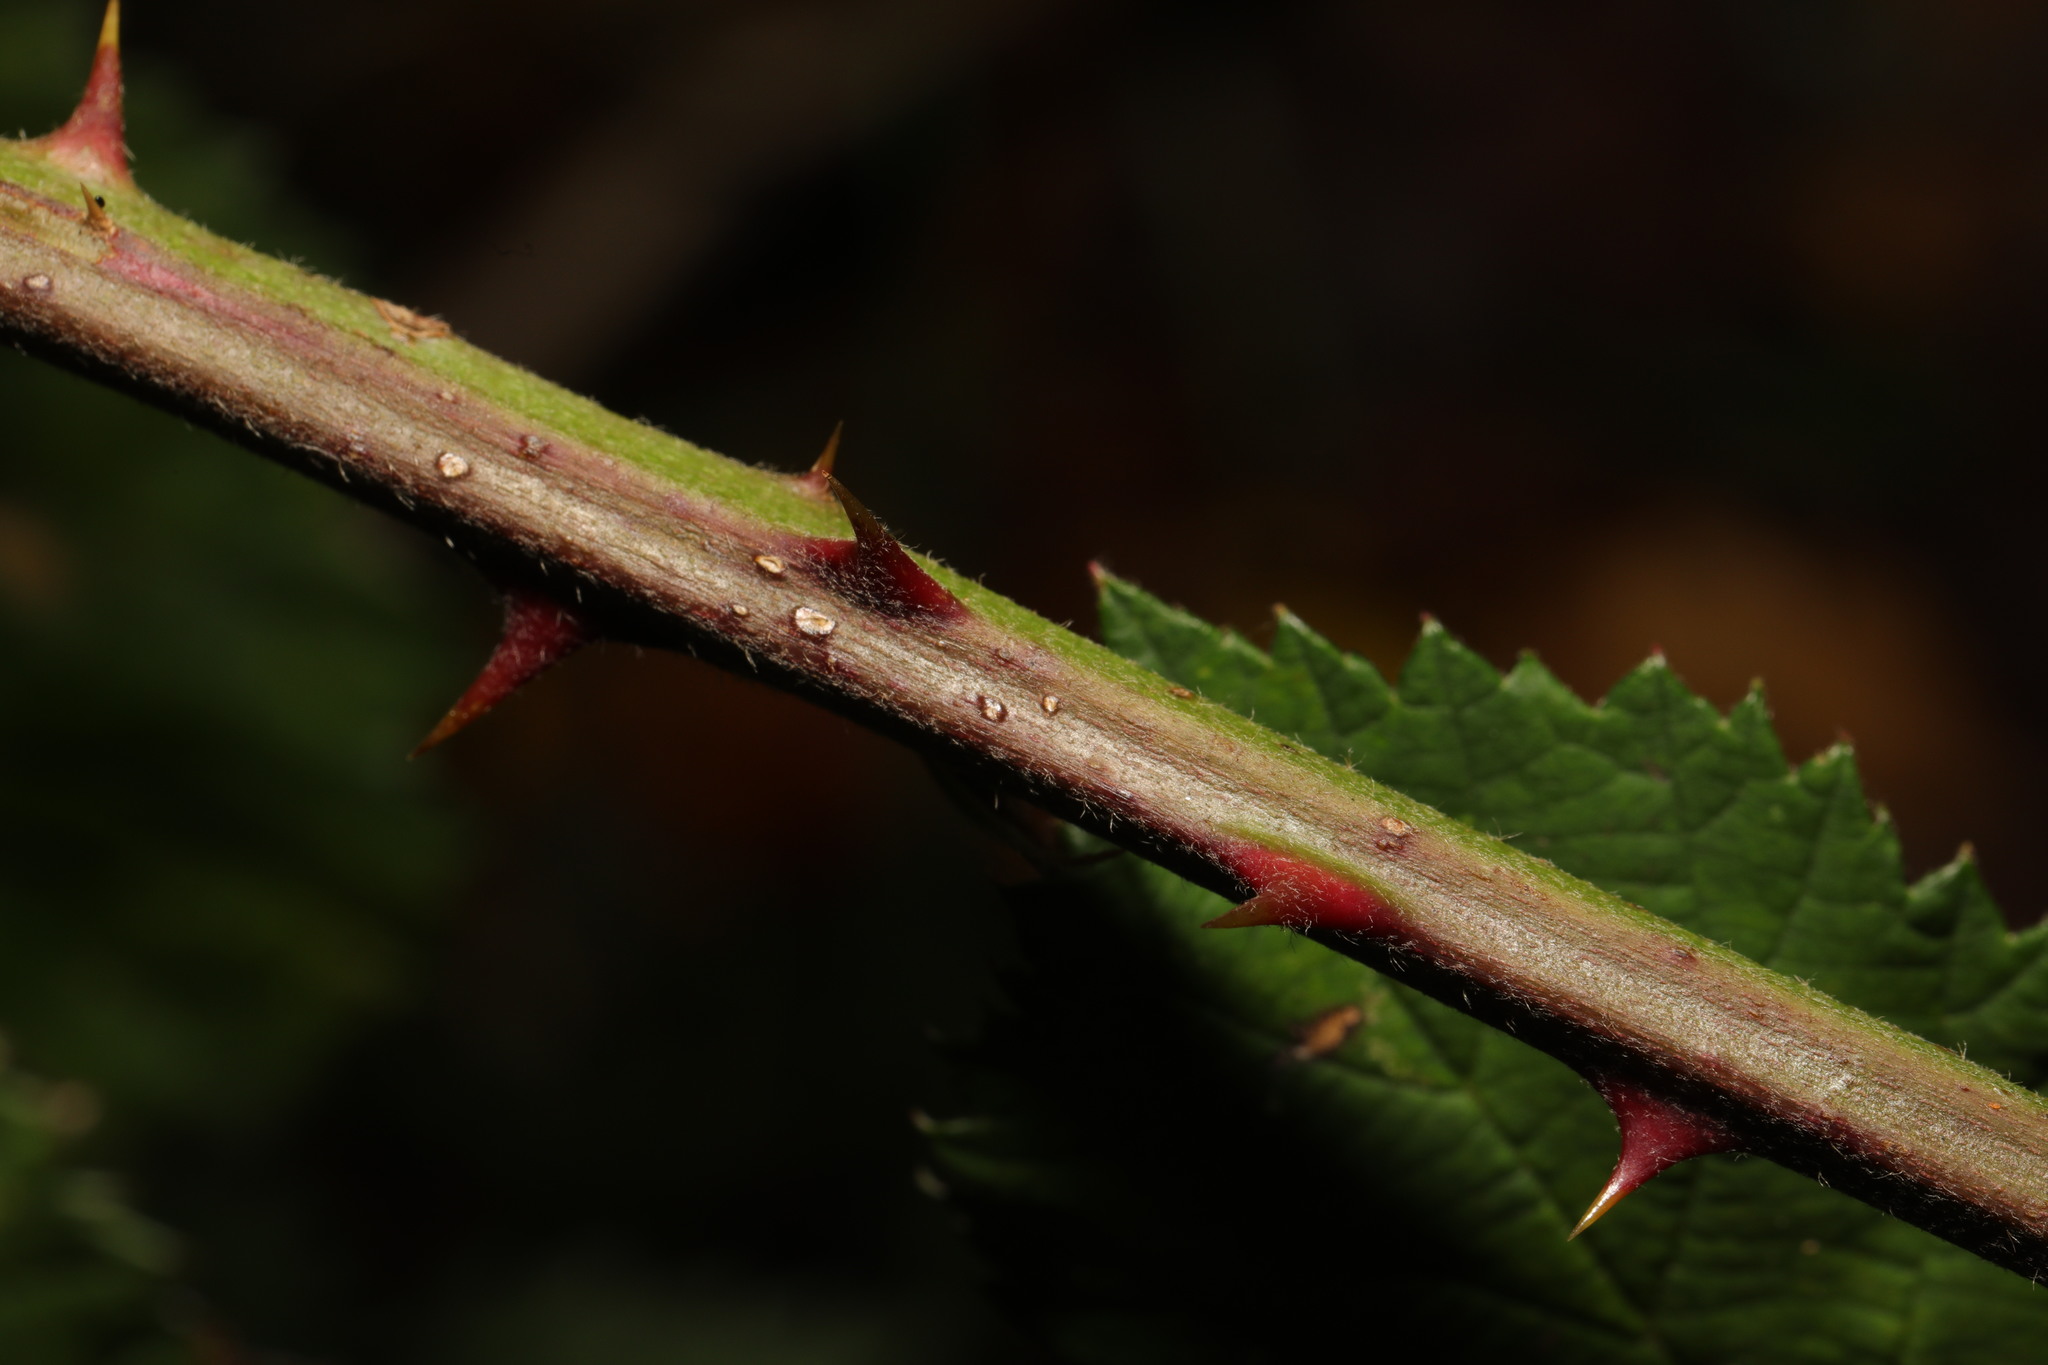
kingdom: Plantae
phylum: Tracheophyta
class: Magnoliopsida
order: Rosales
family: Rosaceae
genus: Rubus
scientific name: Rubus armeniacus
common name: Himalayan blackberry
